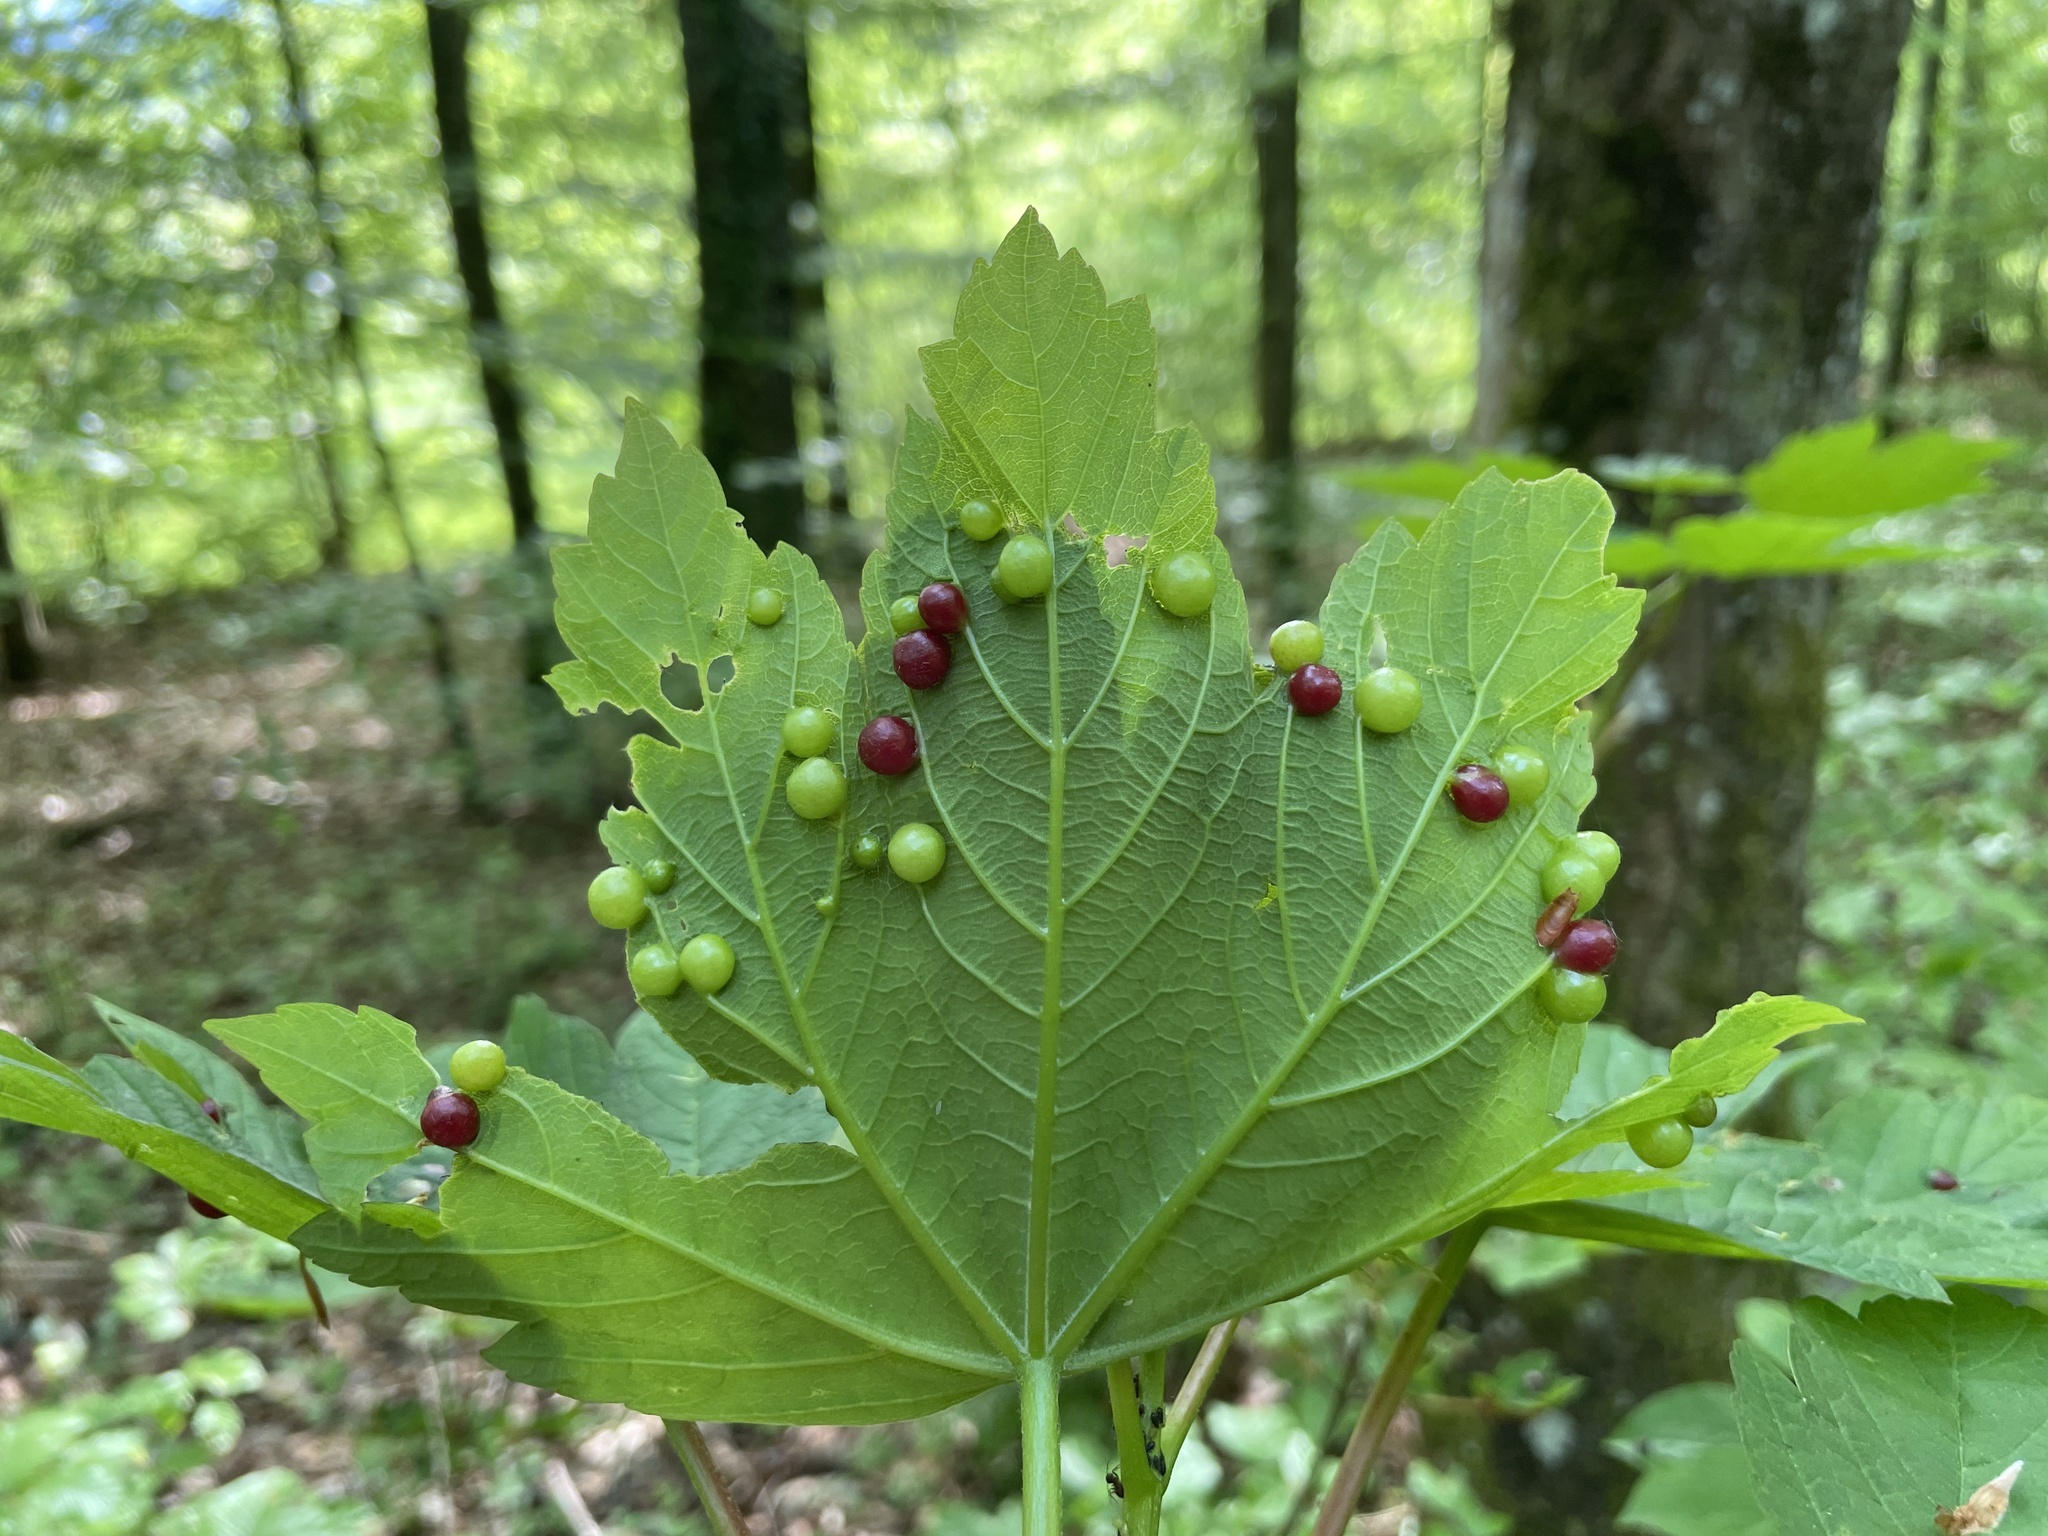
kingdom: Animalia
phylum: Arthropoda
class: Insecta
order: Hymenoptera
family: Cynipidae
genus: Pediaspis
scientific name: Pediaspis aceris
